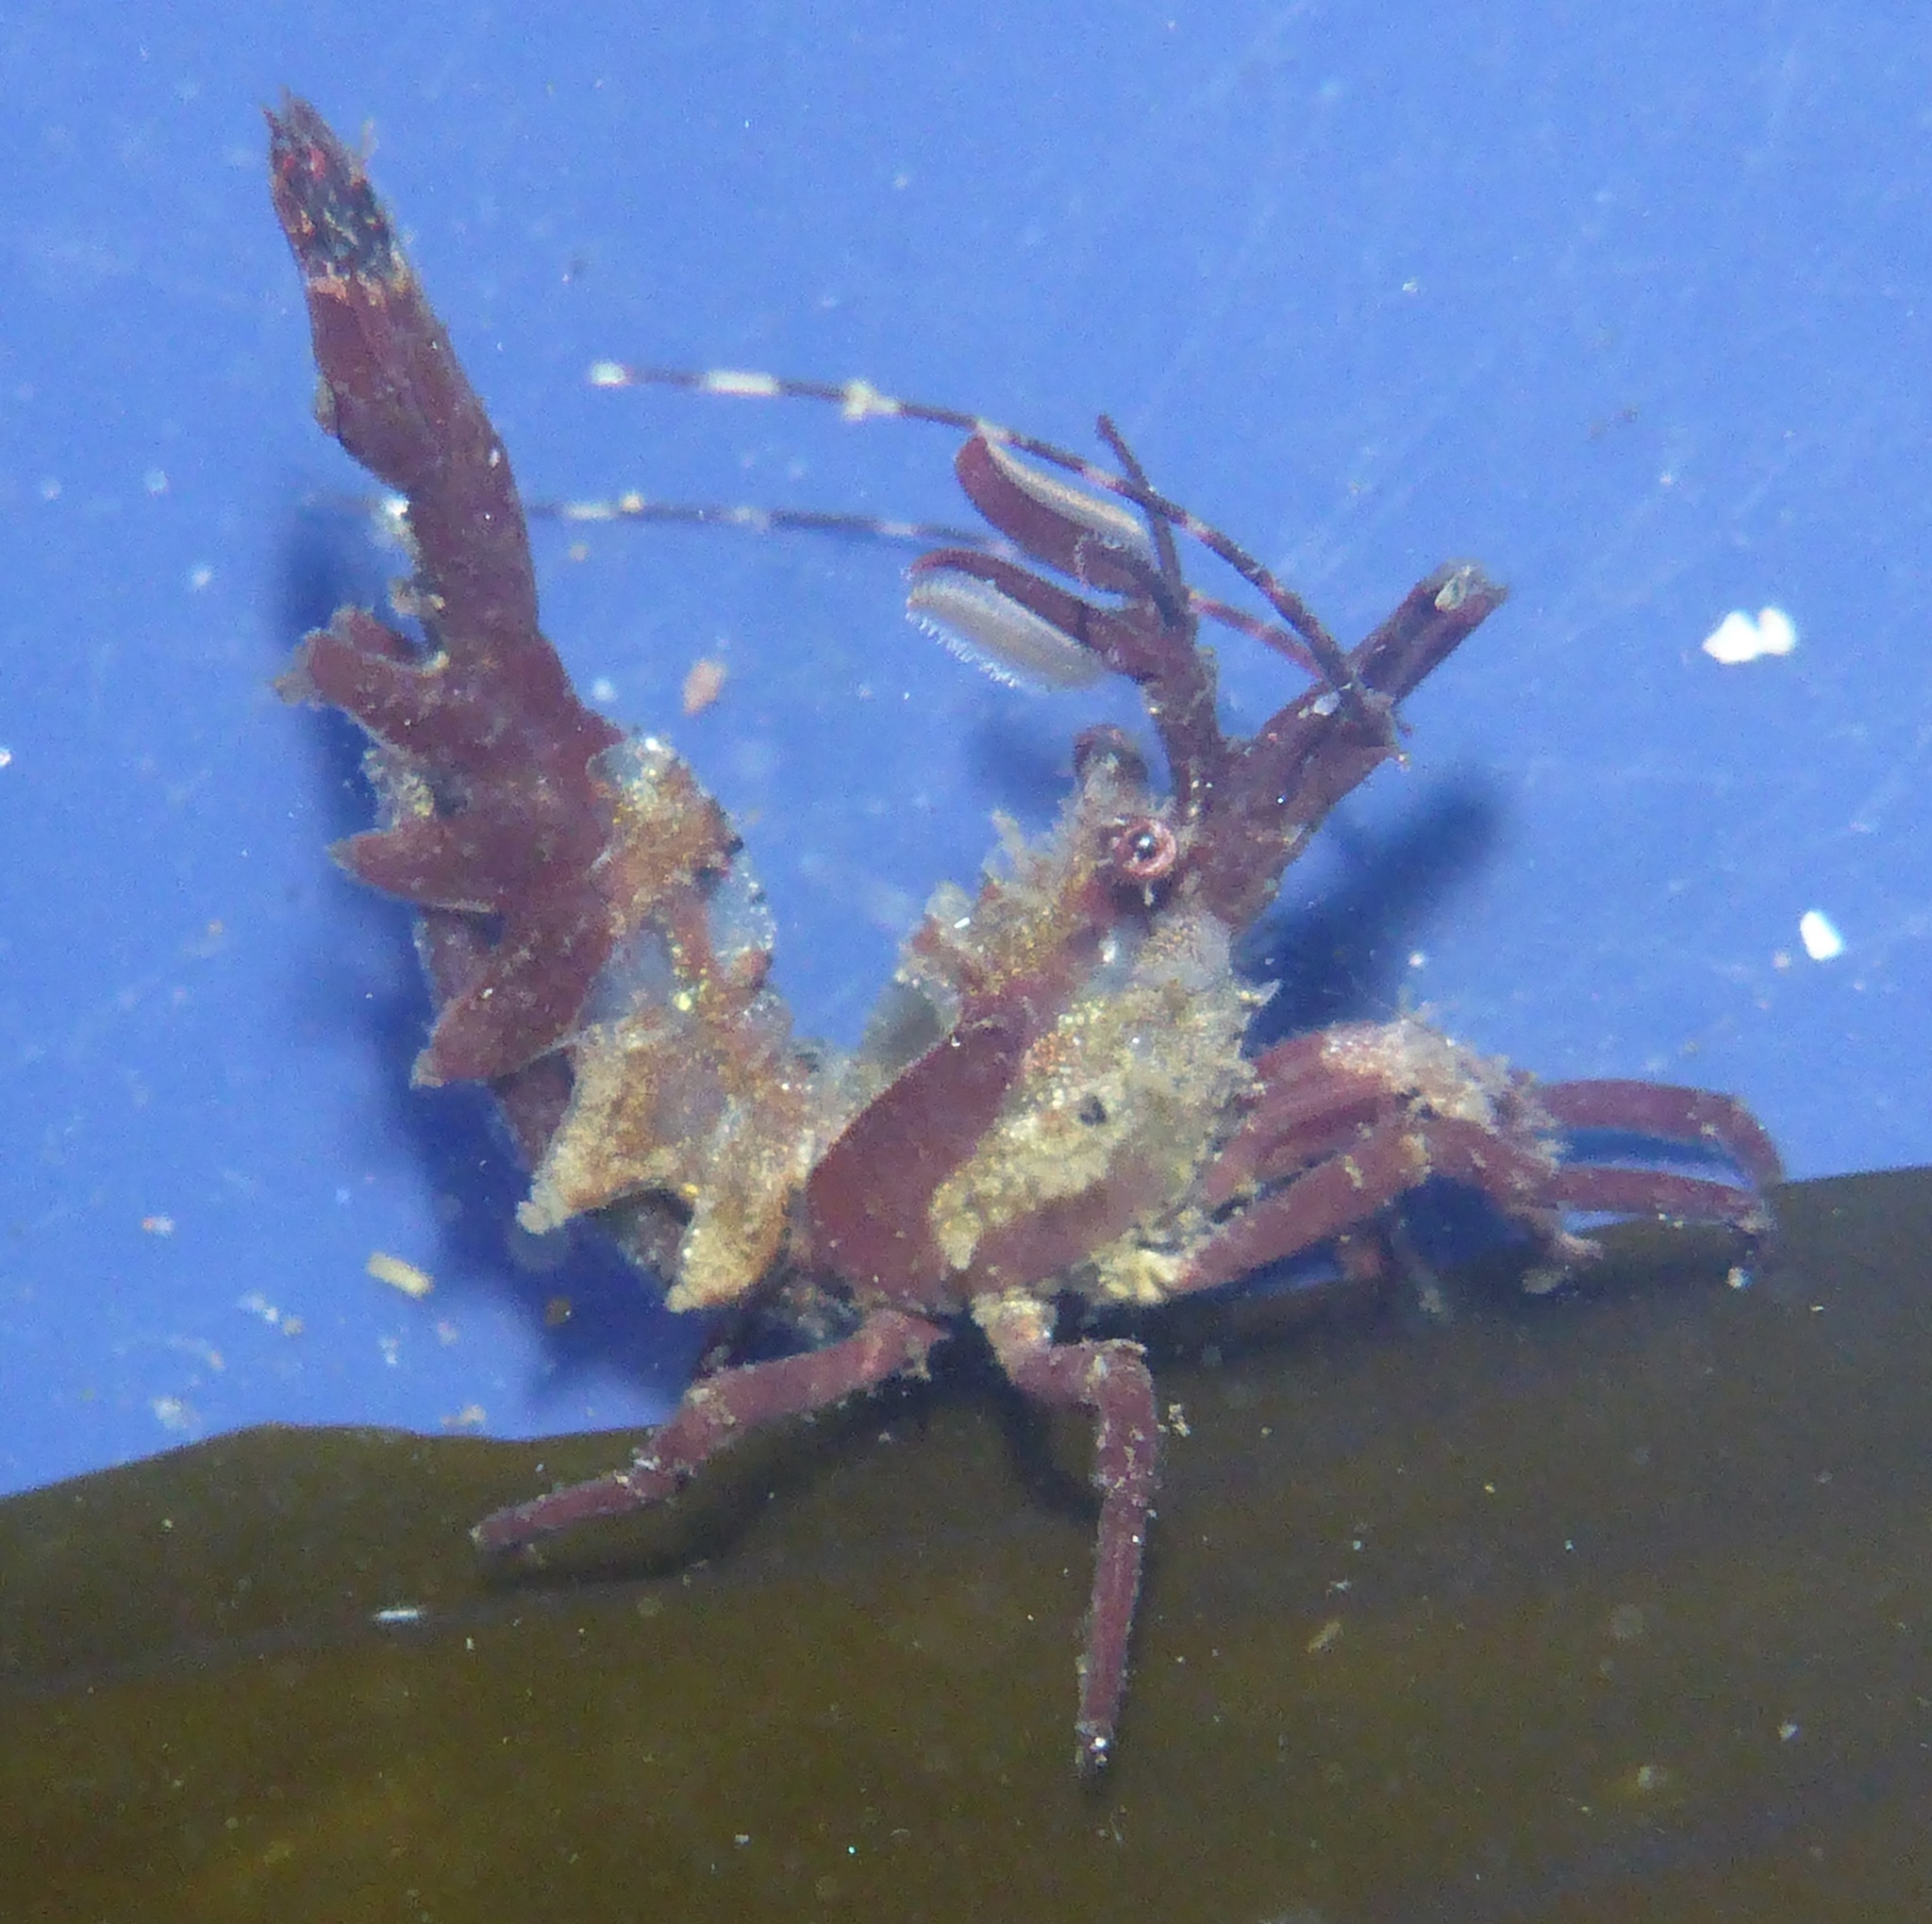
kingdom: Animalia
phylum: Arthropoda
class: Malacostraca
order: Decapoda
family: Thoridae
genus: Lebbeus
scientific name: Lebbeus lagunae
